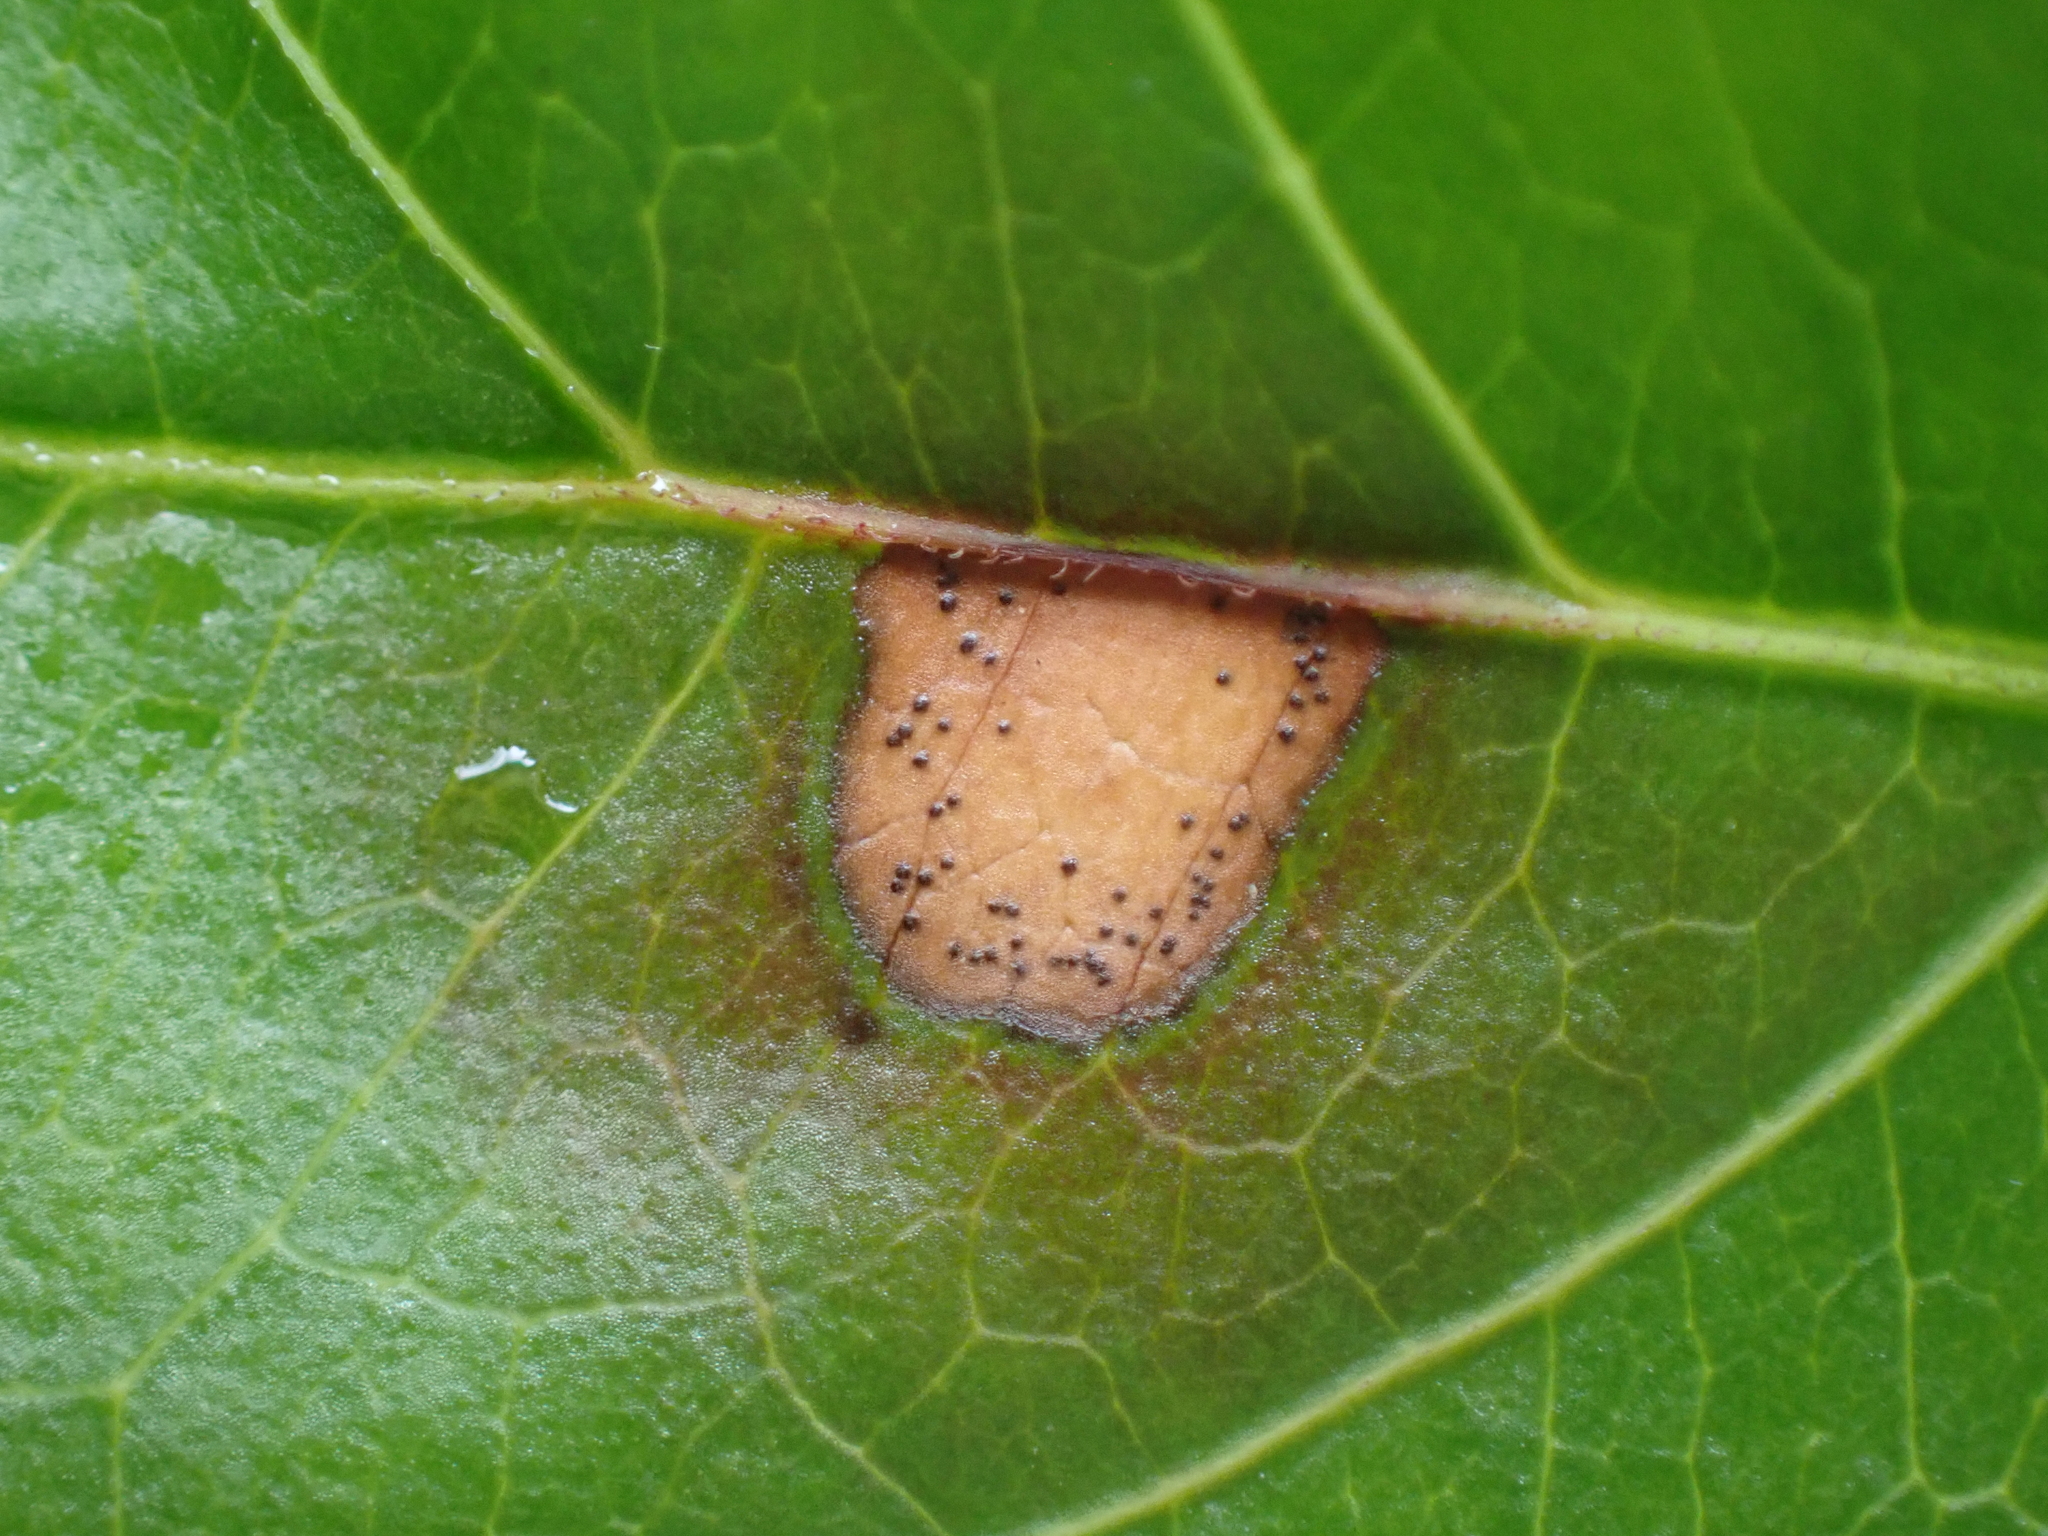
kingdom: Fungi
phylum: Ascomycota
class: Dothideomycetes
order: Botryosphaeriales
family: Phyllostictaceae
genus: Phyllosticta
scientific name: Phyllosticta parthenocissi
